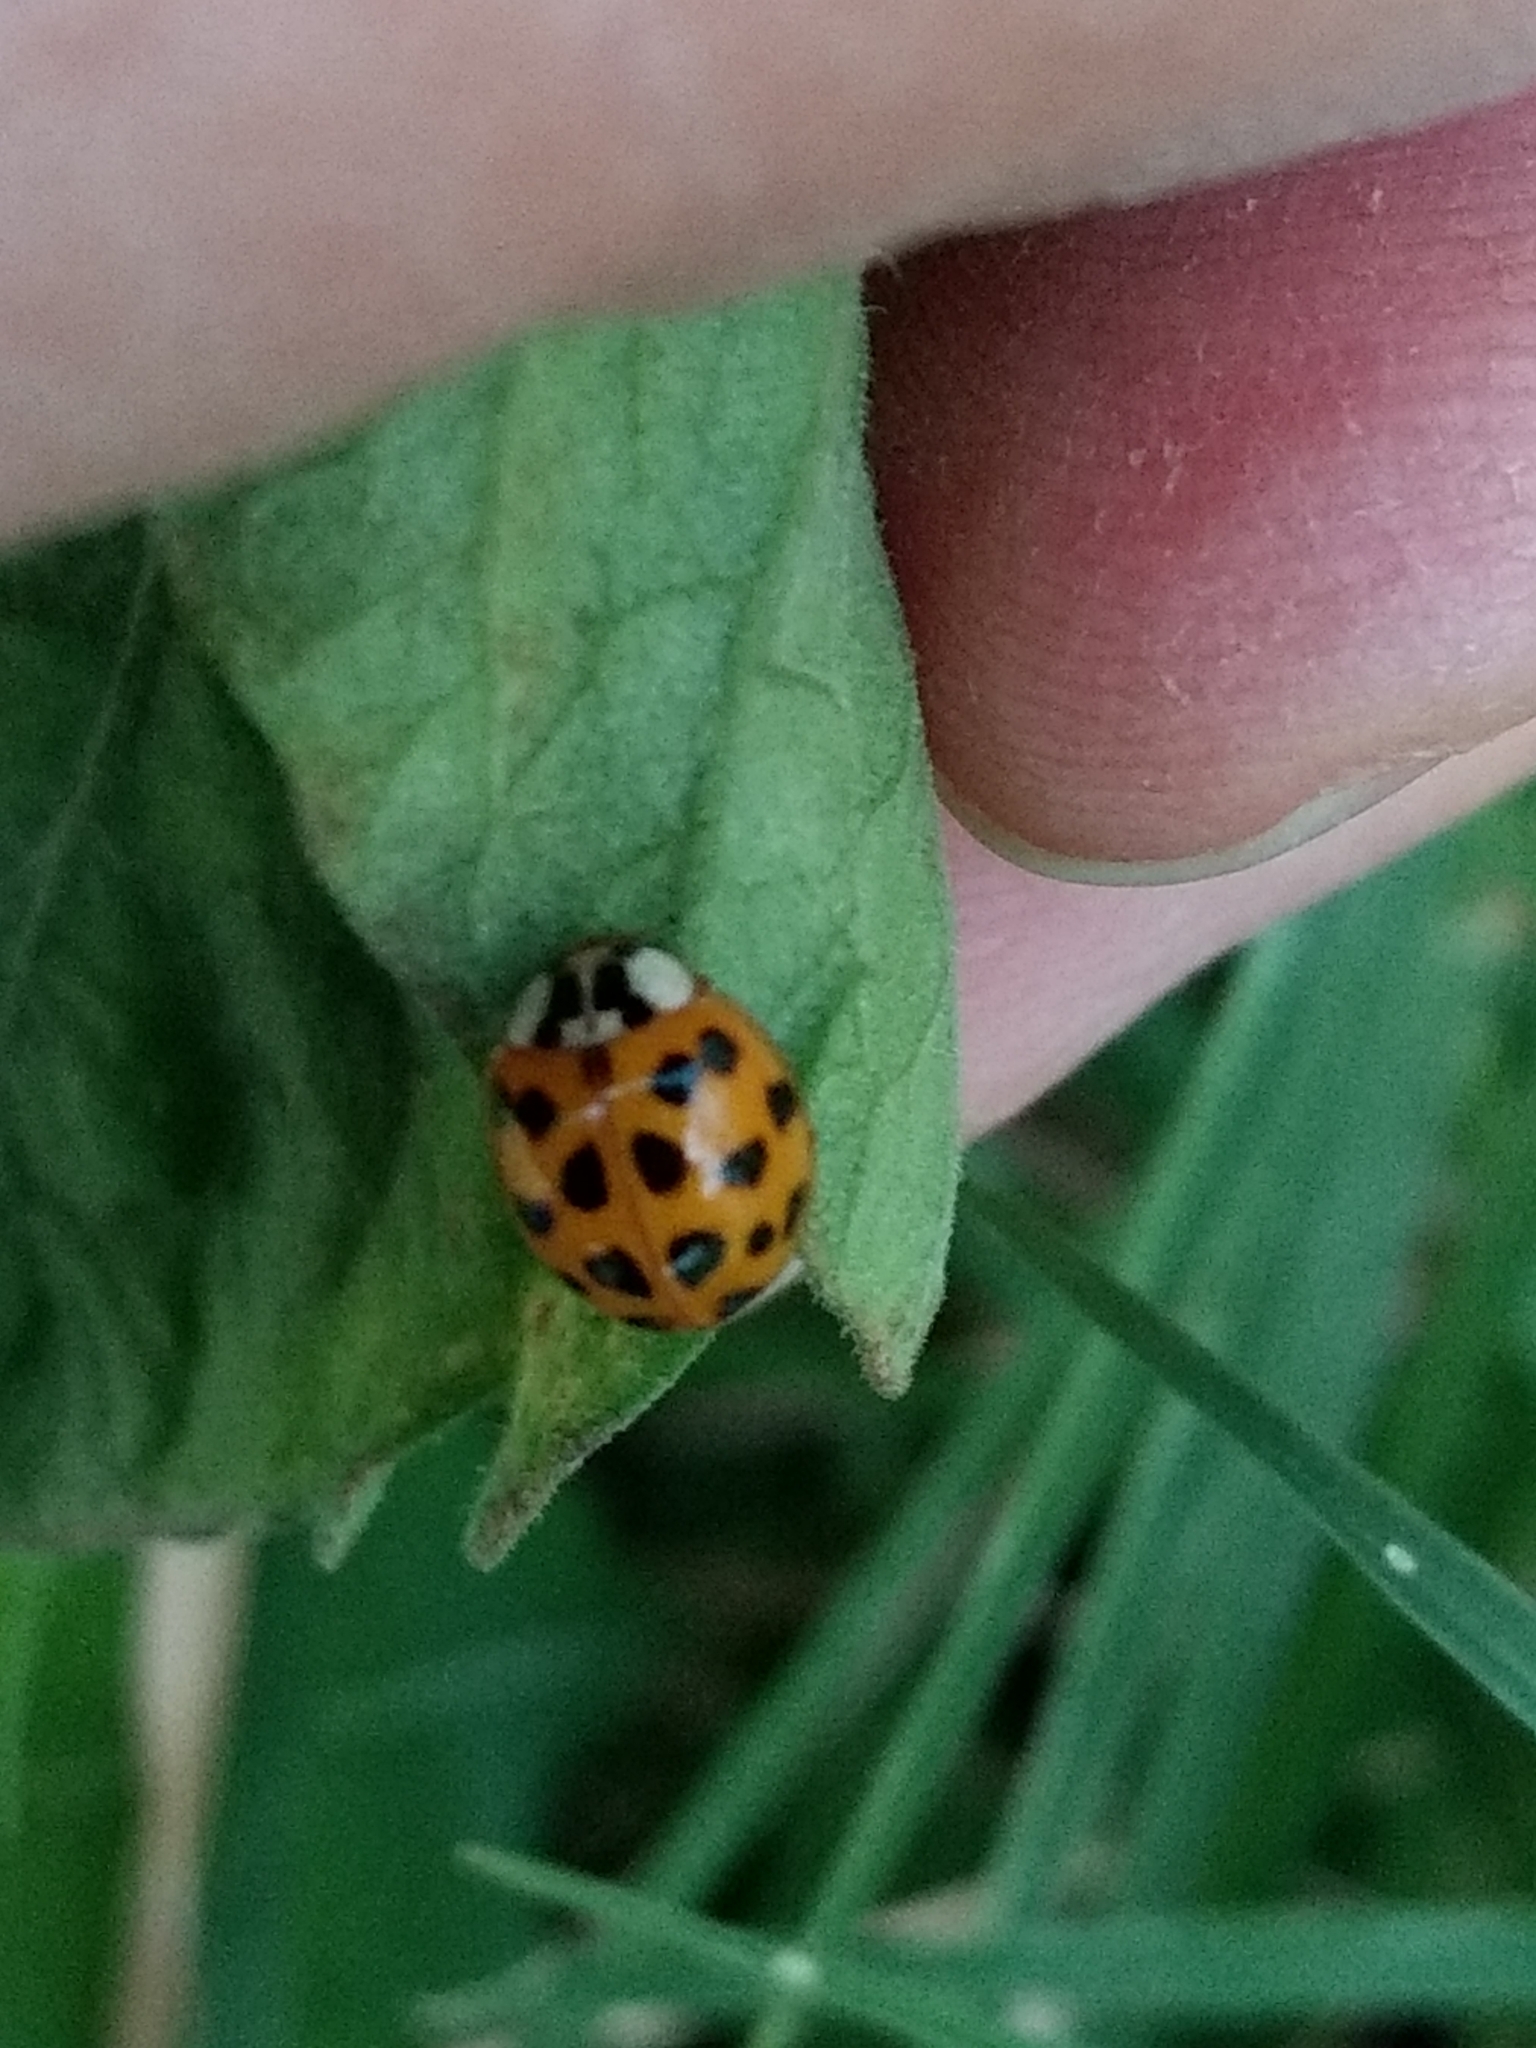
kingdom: Animalia
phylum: Arthropoda
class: Insecta
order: Coleoptera
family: Coccinellidae
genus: Harmonia
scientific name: Harmonia axyridis
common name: Harlequin ladybird
